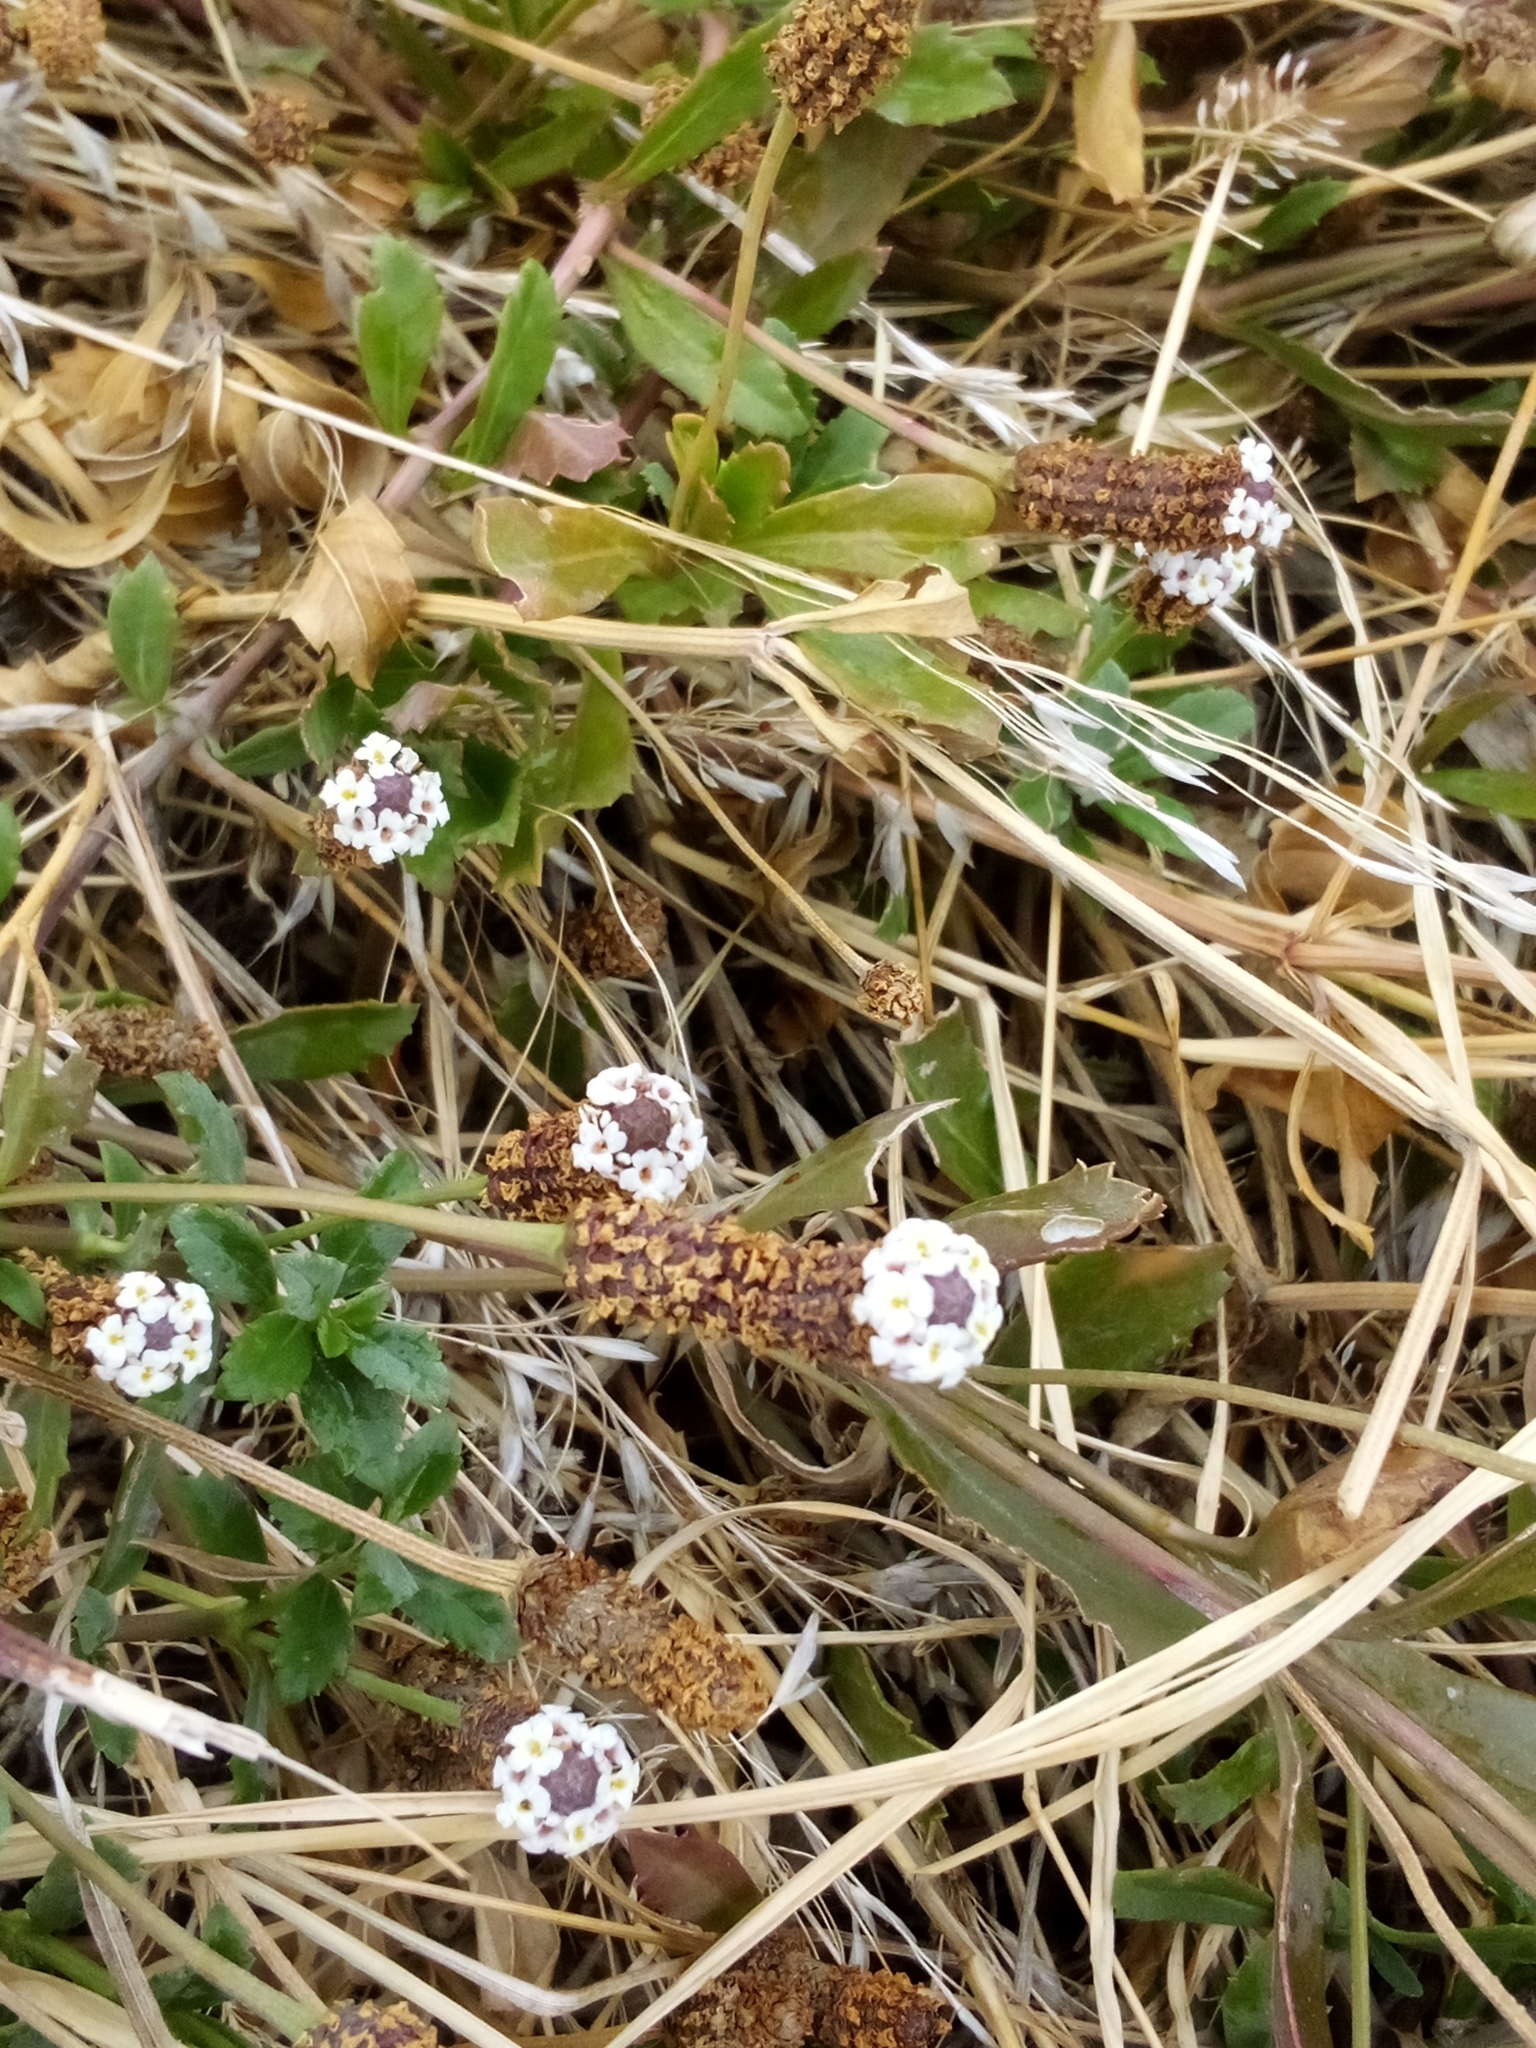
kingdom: Plantae
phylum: Tracheophyta
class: Magnoliopsida
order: Lamiales
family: Verbenaceae
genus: Phyla
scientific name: Phyla nodiflora
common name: Frogfruit
